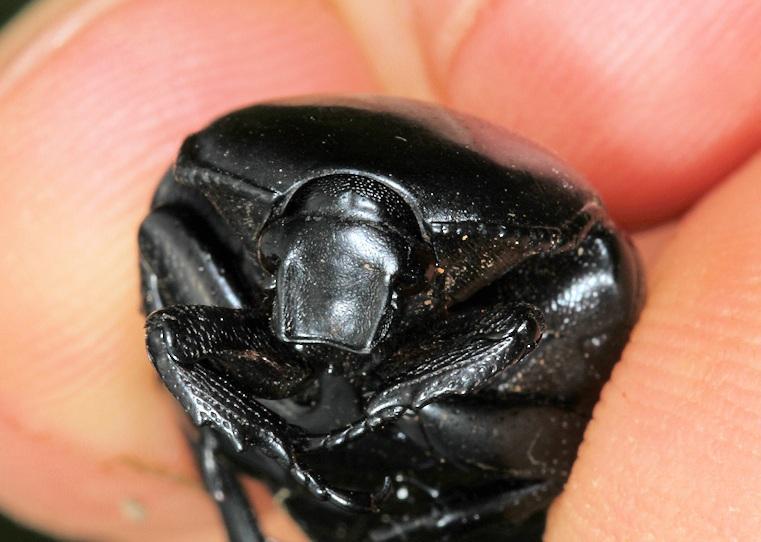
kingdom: Animalia
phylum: Arthropoda
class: Insecta
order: Coleoptera
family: Scarabaeidae
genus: Diplognatha
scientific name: Diplognatha gagates
